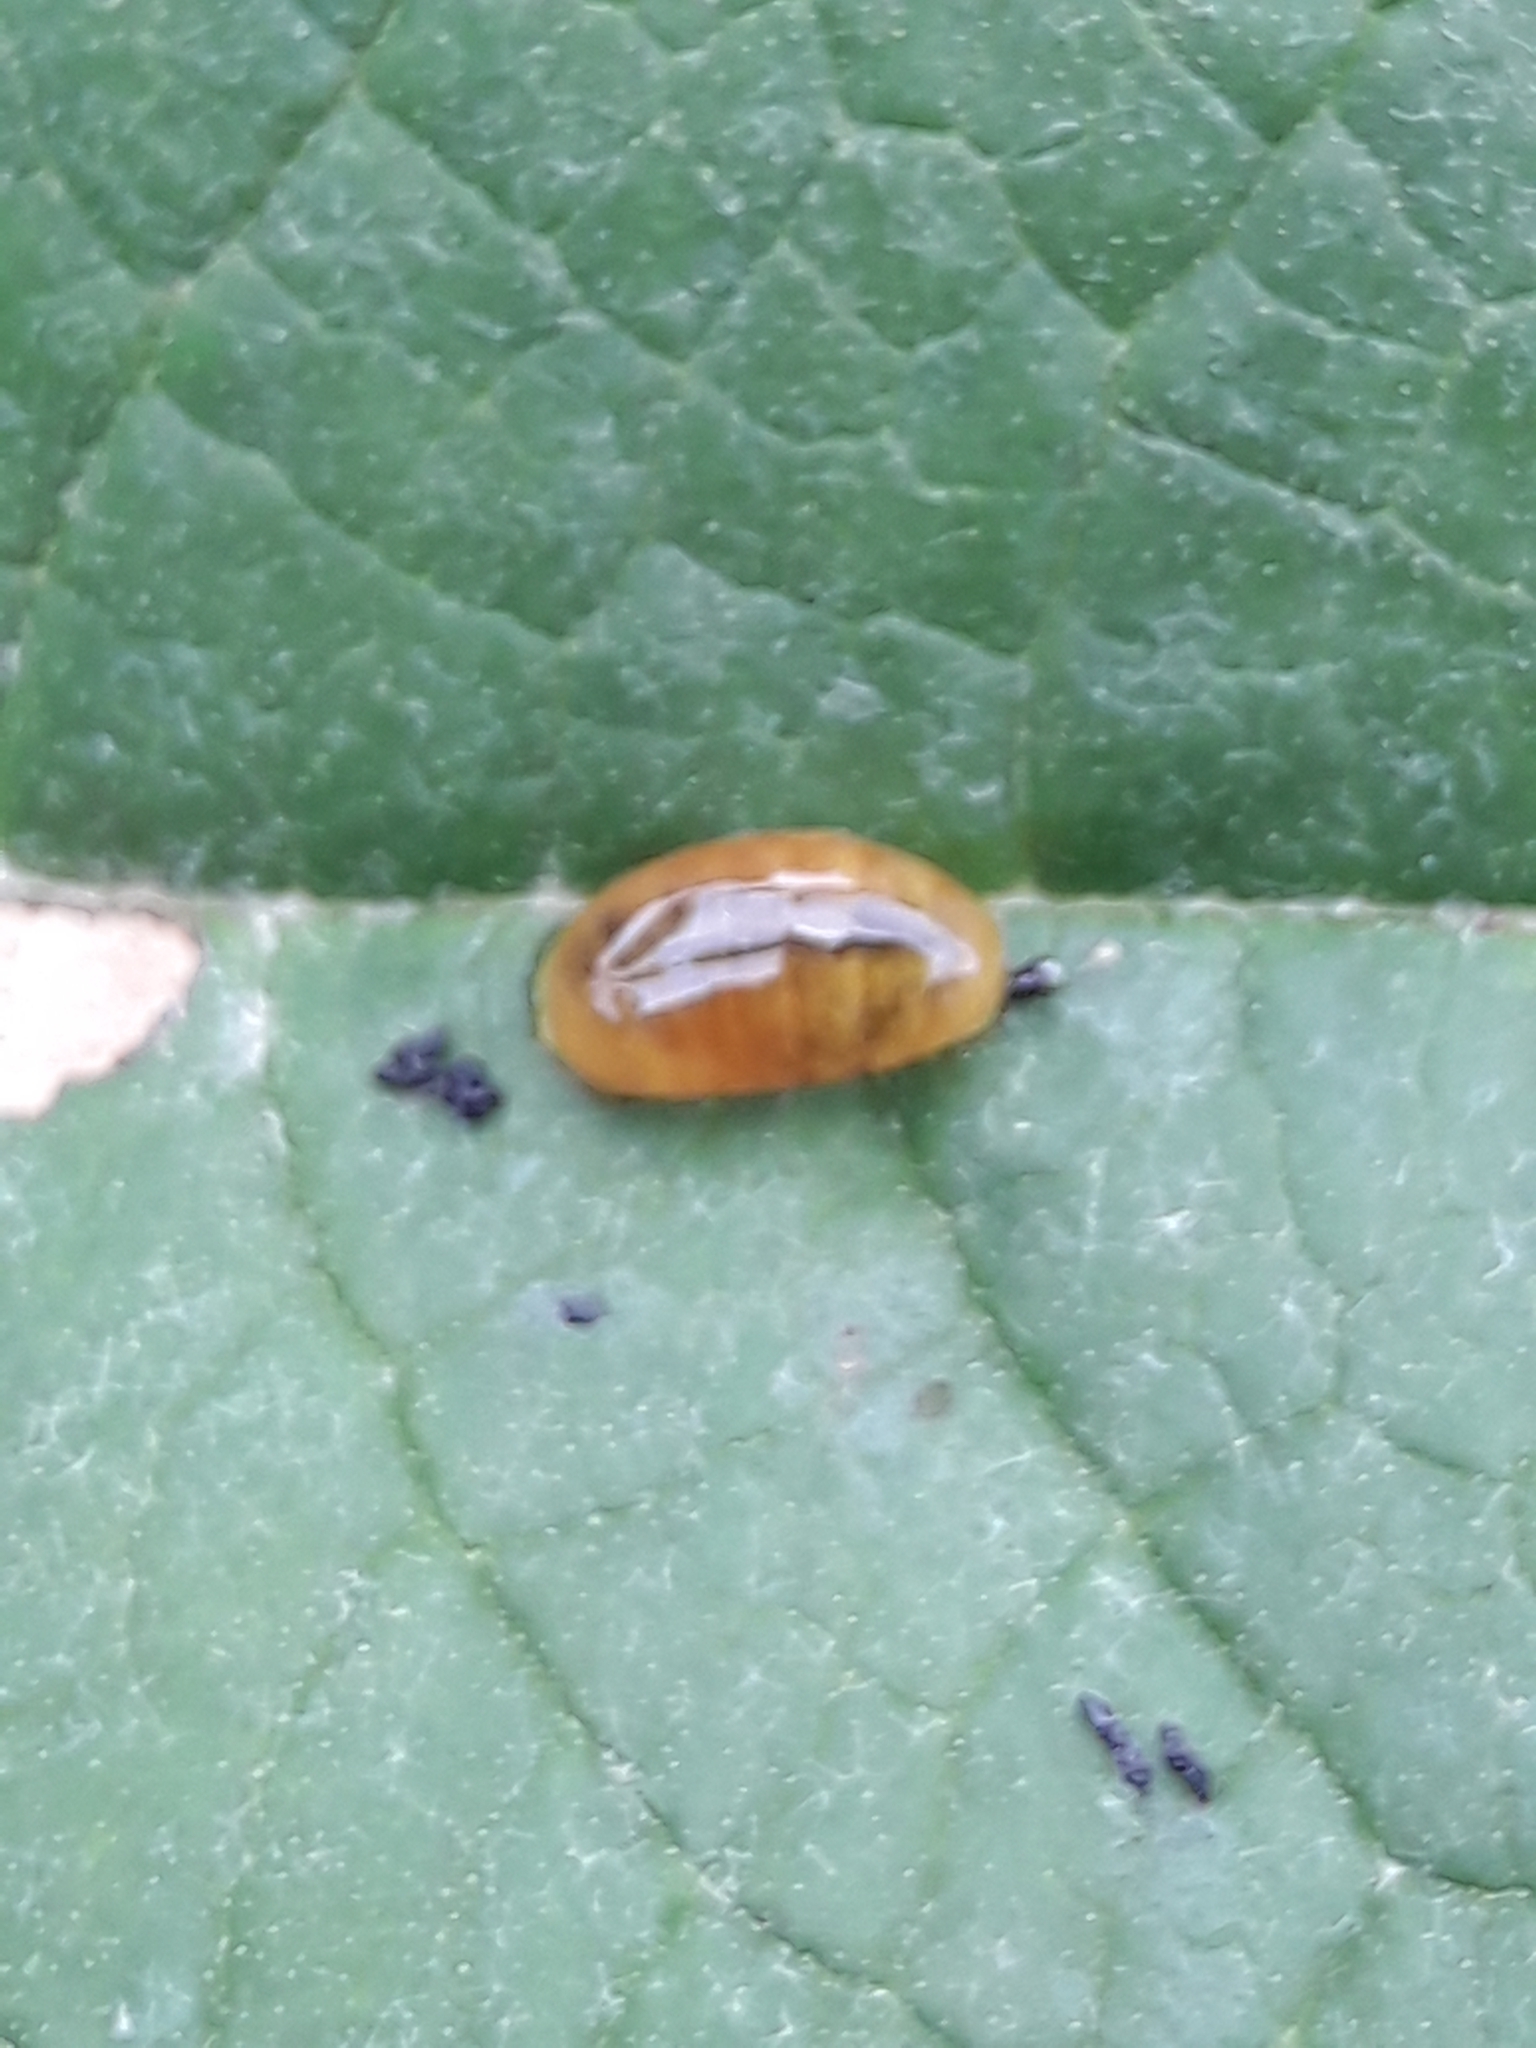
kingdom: Animalia
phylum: Arthropoda
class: Insecta
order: Coleoptera
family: Curculionidae
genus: Cleopus
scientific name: Cleopus japonicus
